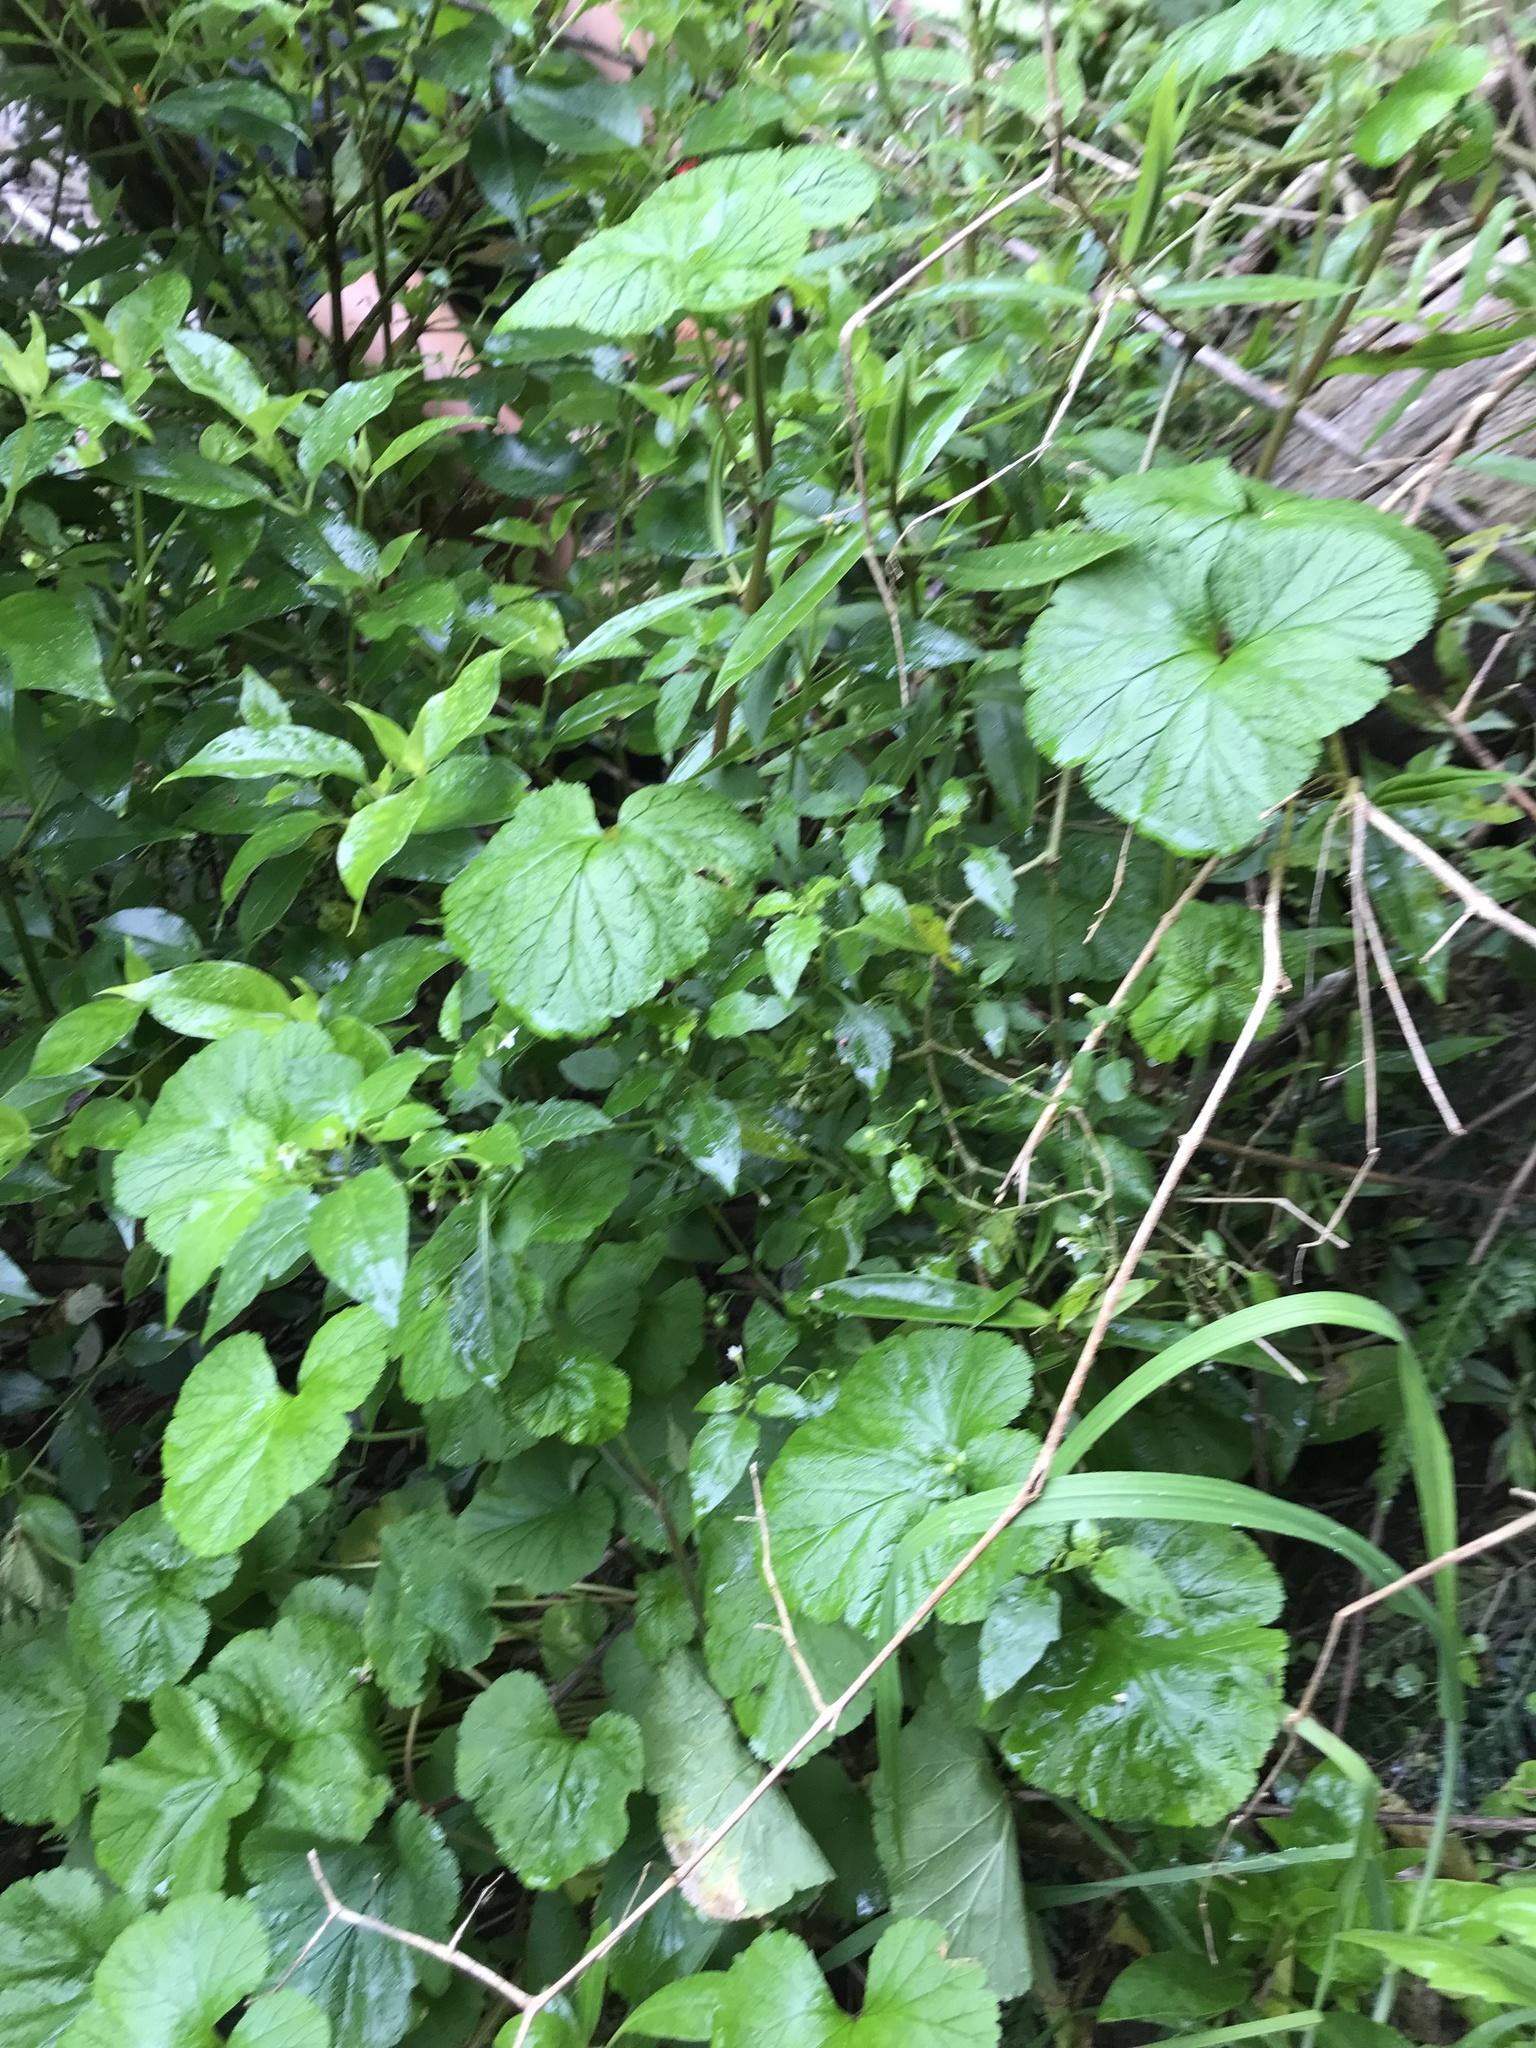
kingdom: Plantae
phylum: Tracheophyta
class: Magnoliopsida
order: Geraniales
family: Geraniaceae
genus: Pelargonium
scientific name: Pelargonium inodorum
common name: Kopata geranium
